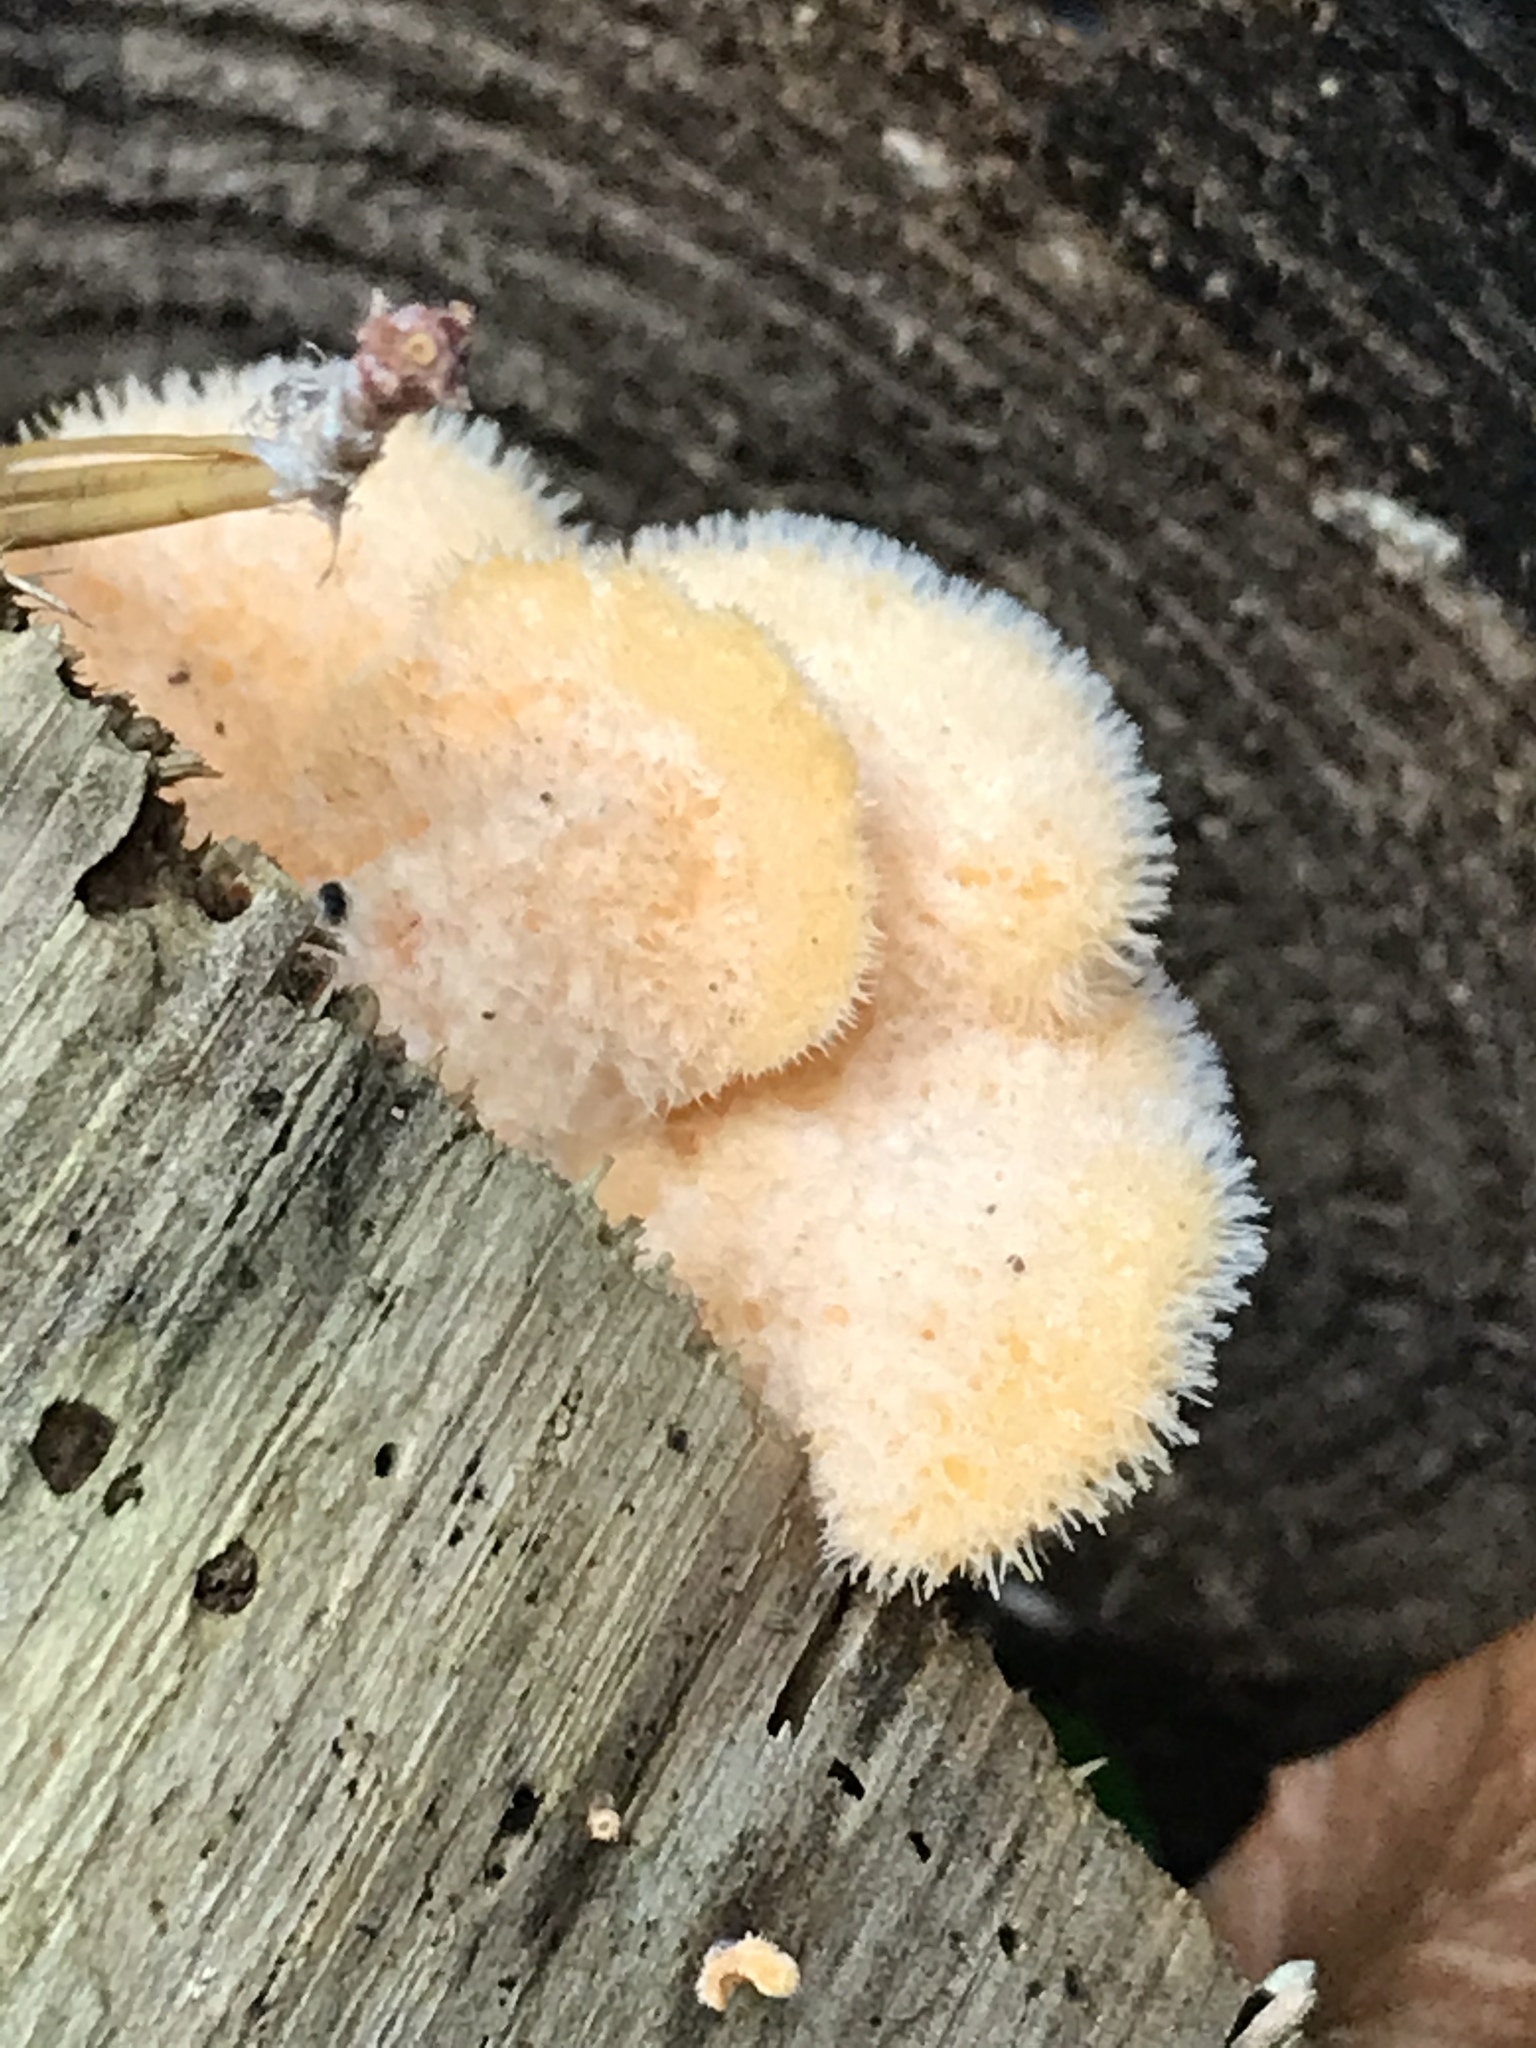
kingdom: Fungi
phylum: Basidiomycota
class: Agaricomycetes
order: Agaricales
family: Phyllotopsidaceae
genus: Phyllotopsis
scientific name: Phyllotopsis nidulans
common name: Orange mock oyster
